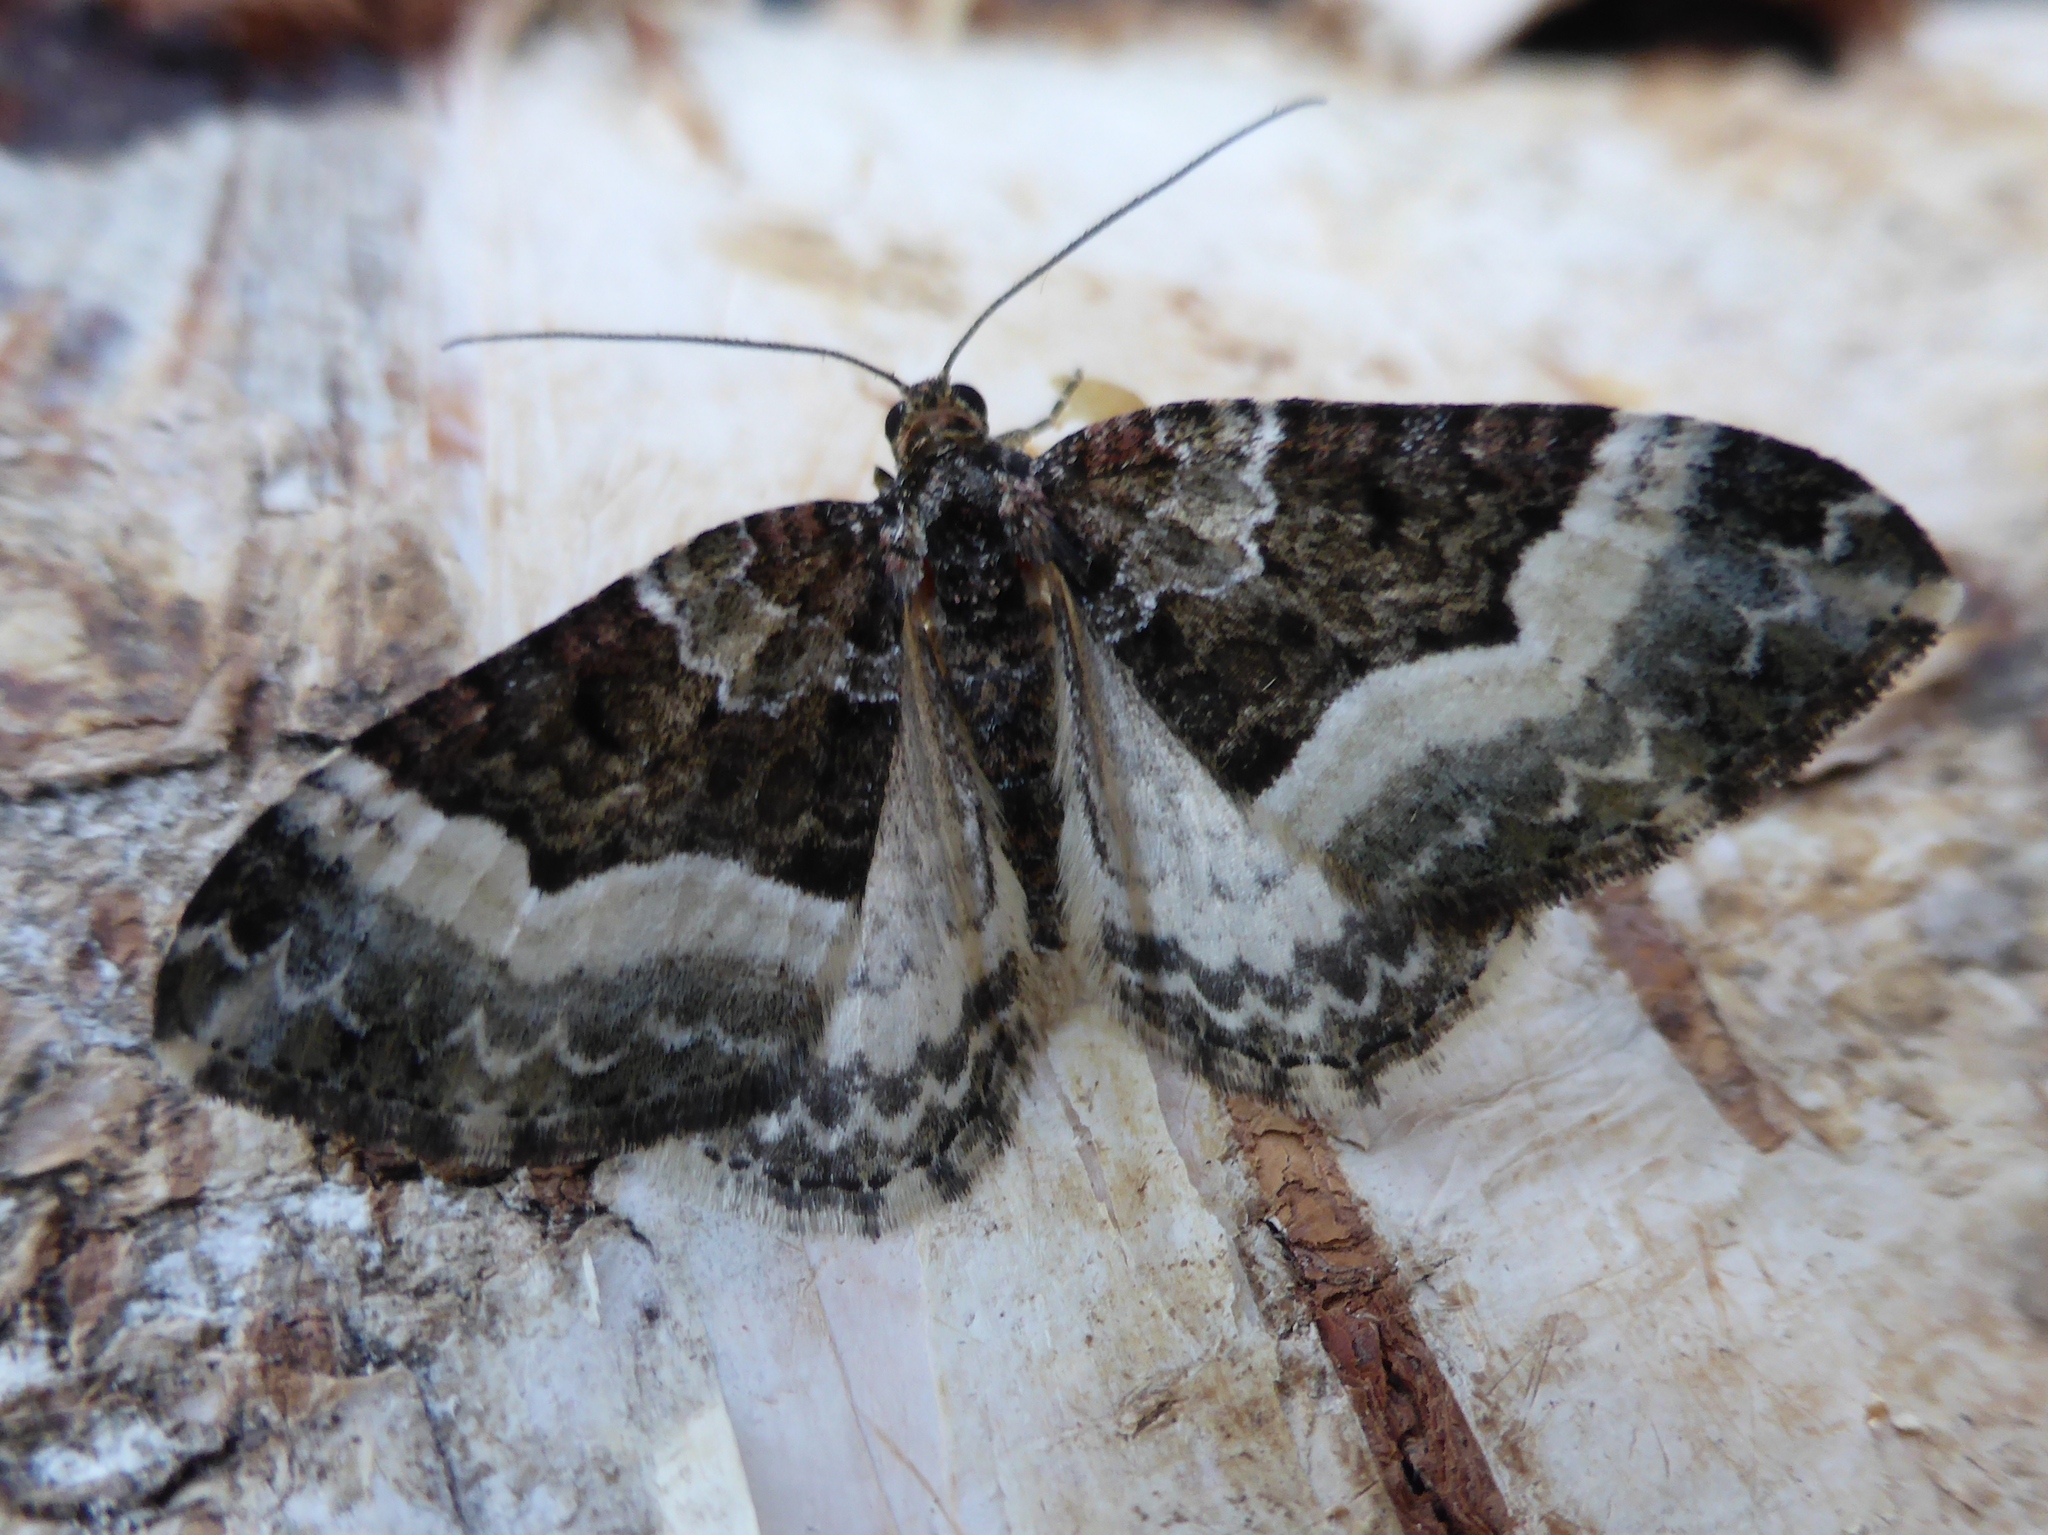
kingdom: Animalia
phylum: Arthropoda
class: Insecta
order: Lepidoptera
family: Geometridae
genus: Euphyia
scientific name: Euphyia unangulata
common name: Sharp-angled carpet
